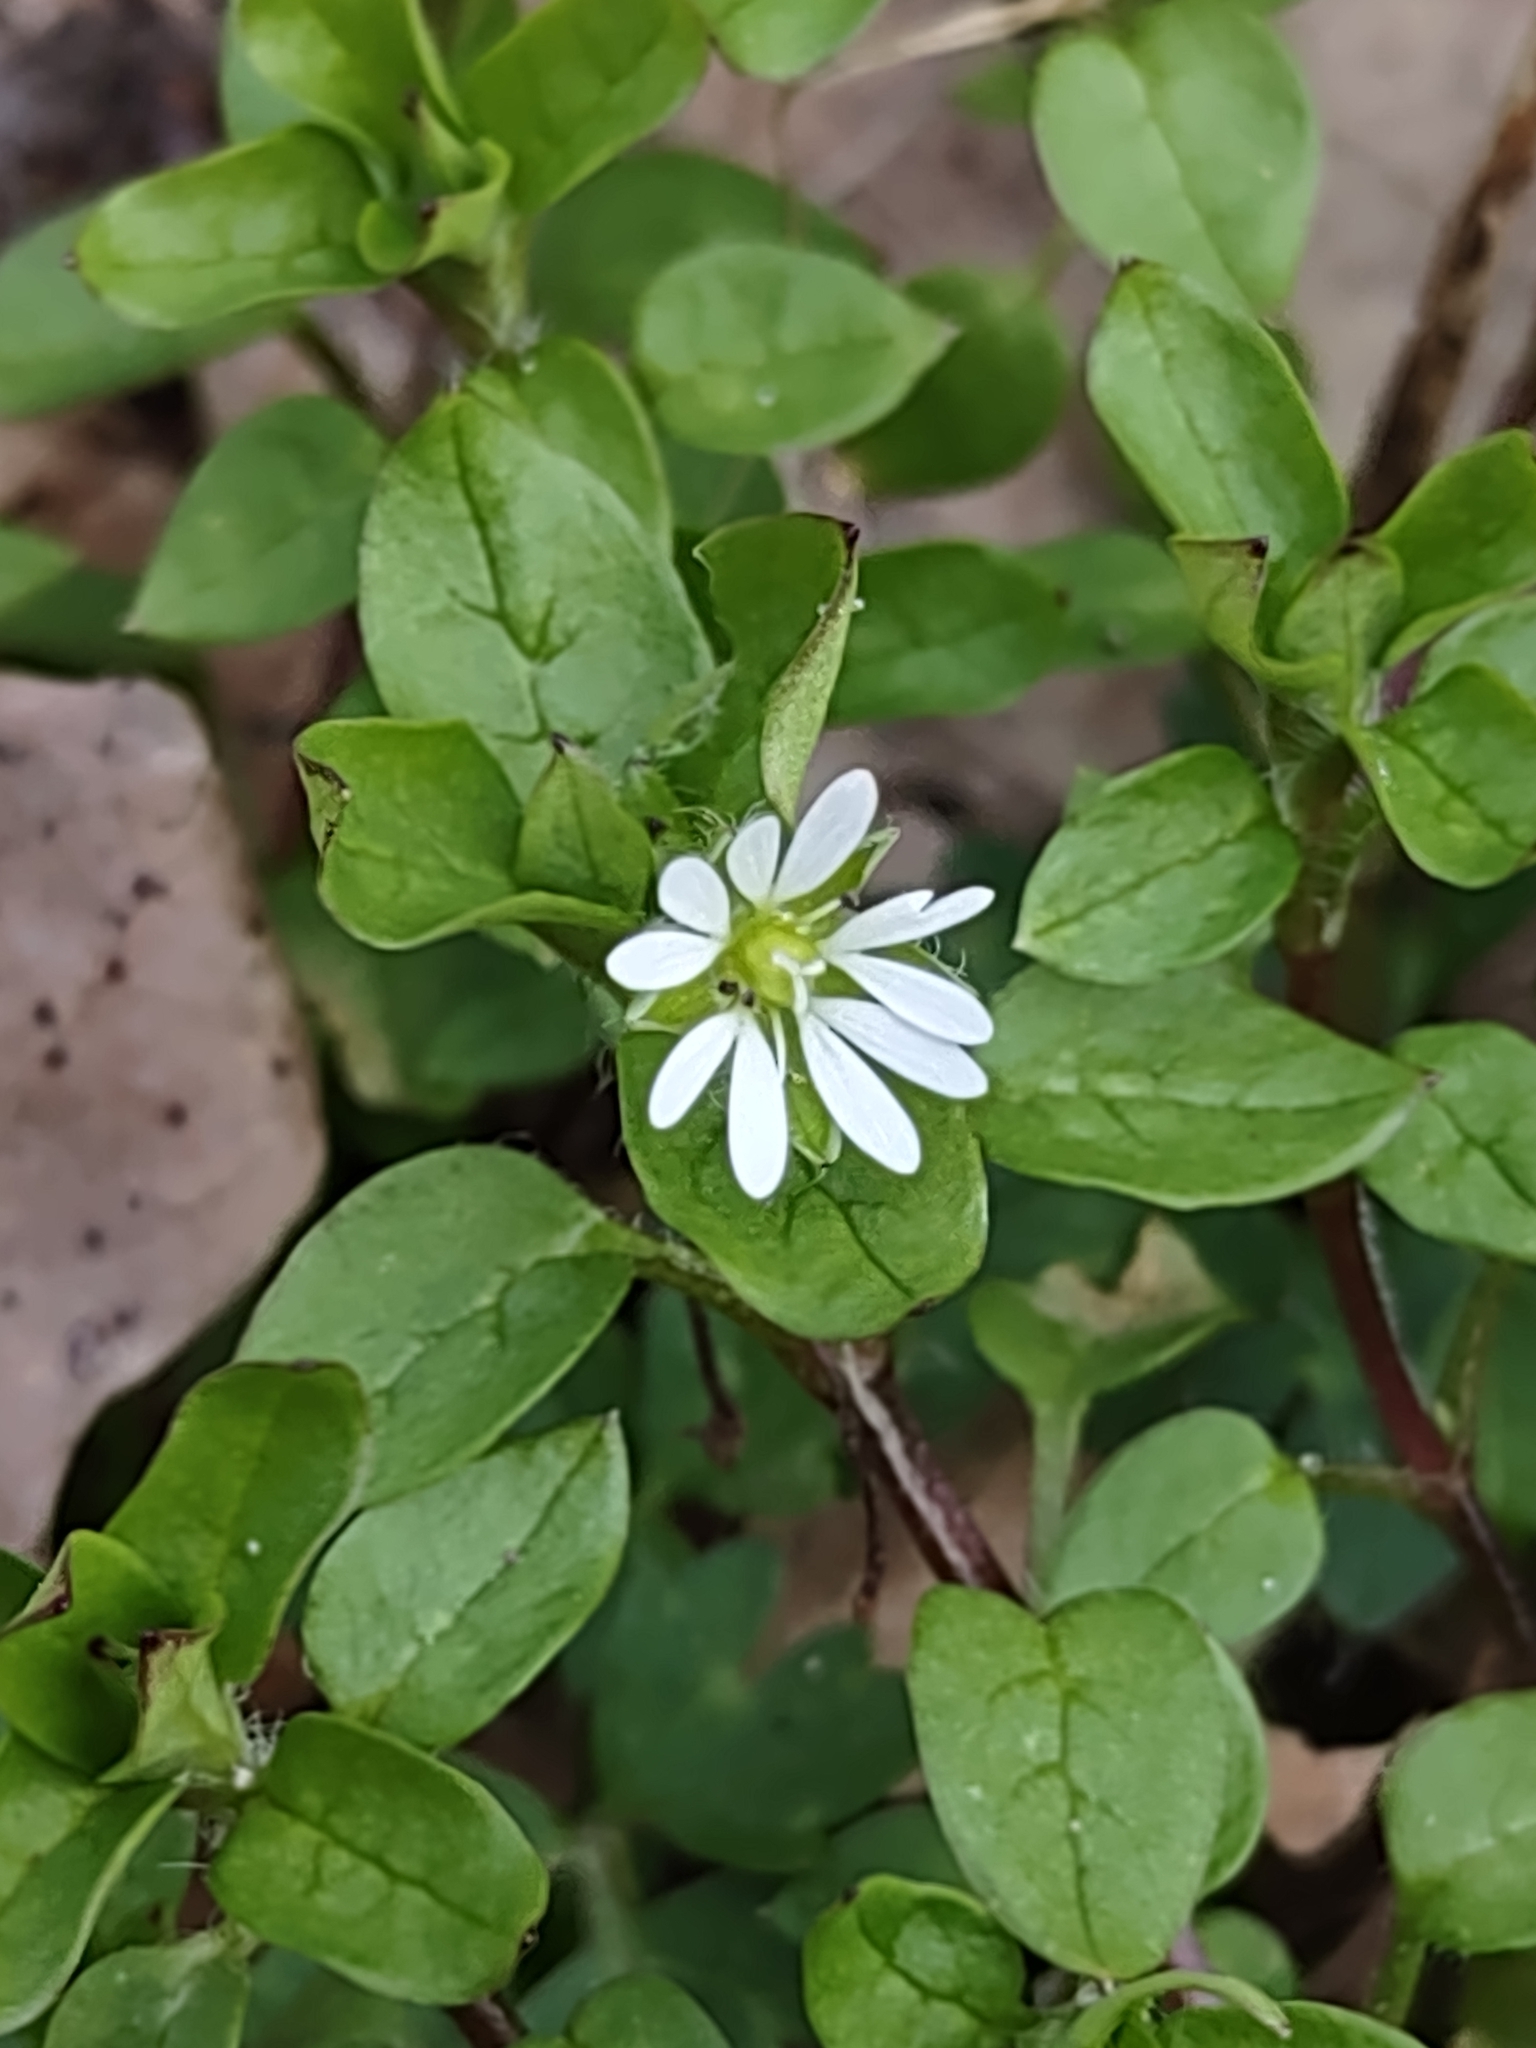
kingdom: Plantae
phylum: Tracheophyta
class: Magnoliopsida
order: Caryophyllales
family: Caryophyllaceae
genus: Stellaria
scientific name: Stellaria media
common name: Common chickweed
